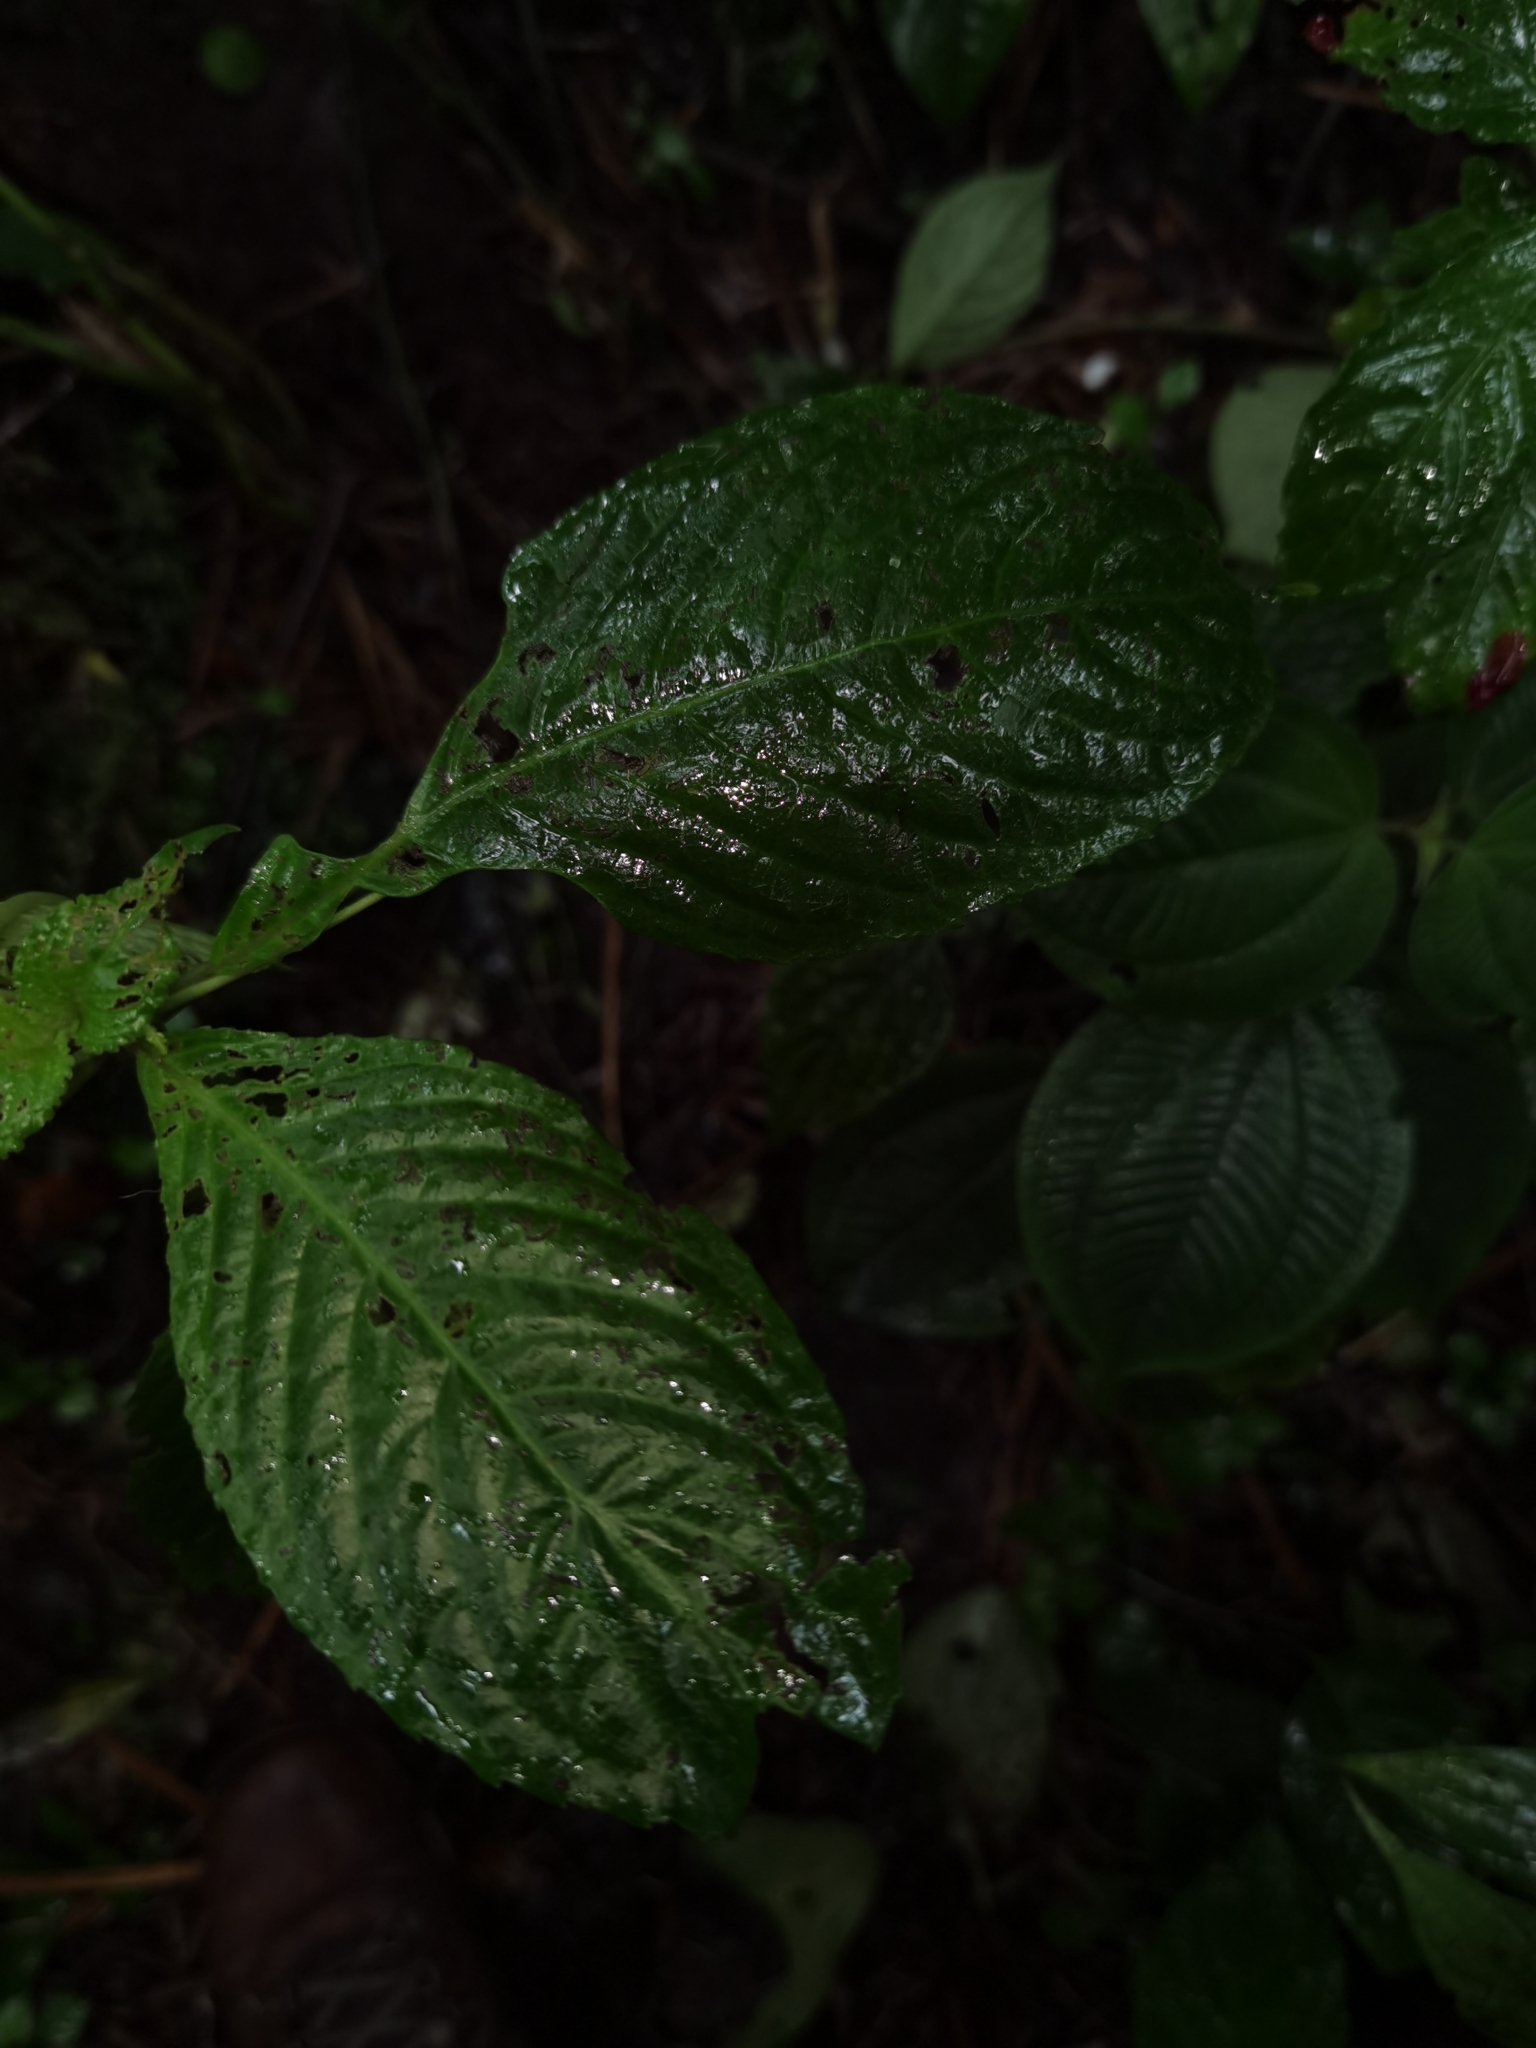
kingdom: Plantae
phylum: Tracheophyta
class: Magnoliopsida
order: Lamiales
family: Gesneriaceae
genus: Gasteranthus
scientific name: Gasteranthus wendlandianus
